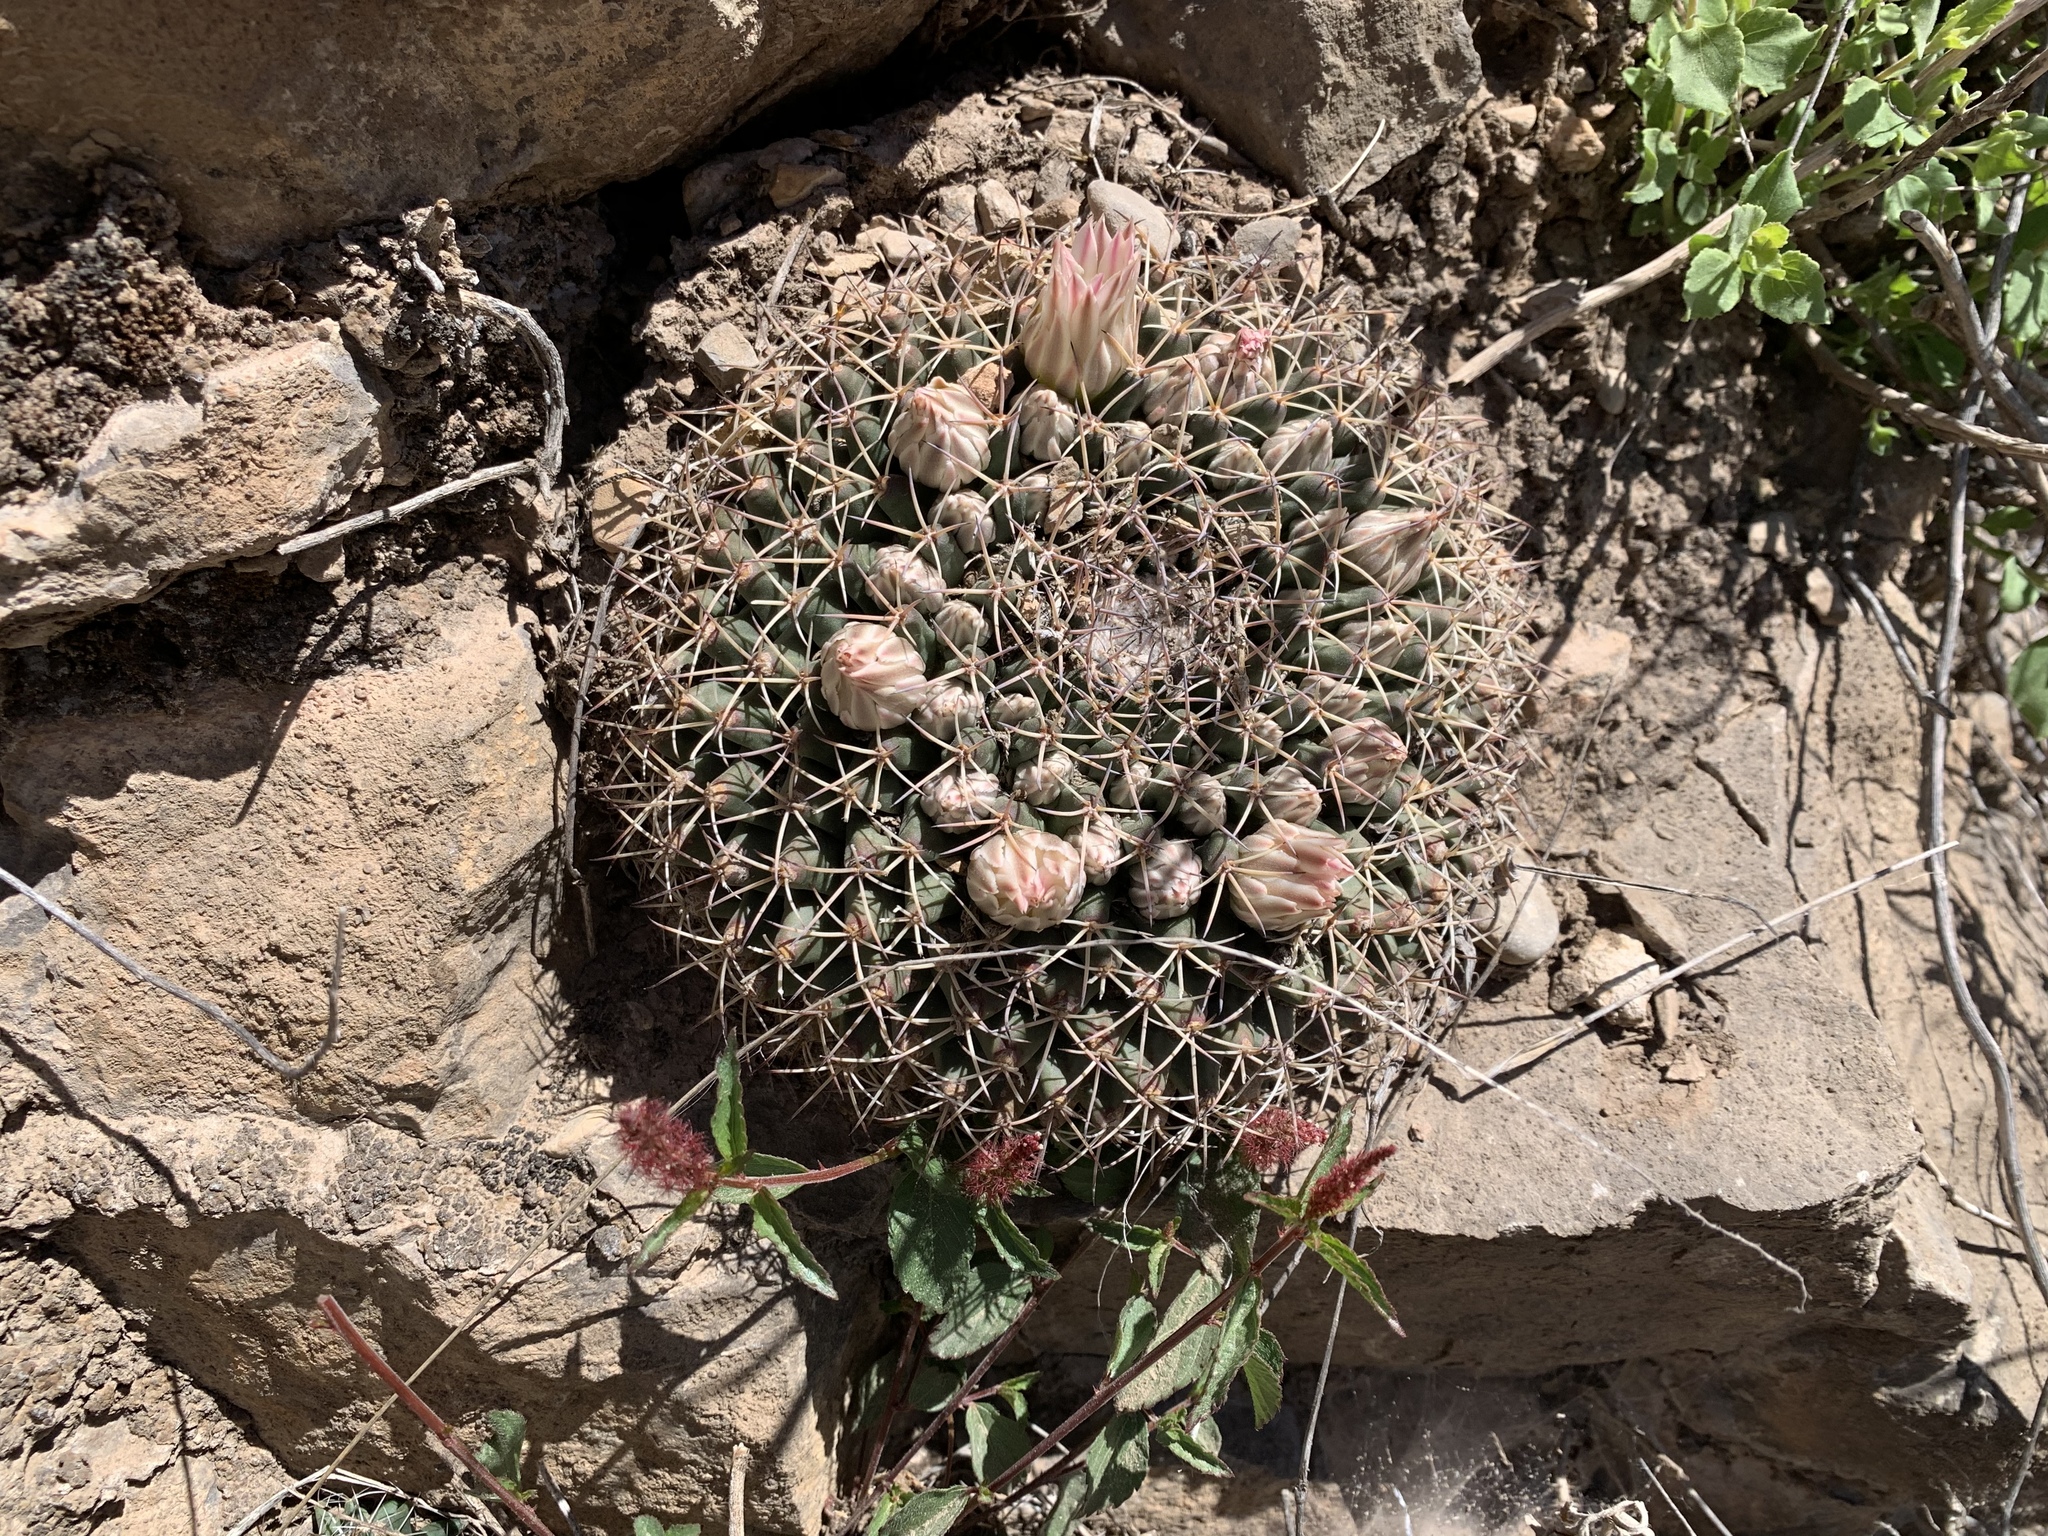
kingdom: Plantae
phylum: Tracheophyta
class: Magnoliopsida
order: Caryophyllales
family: Cactaceae
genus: Mammillaria
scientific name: Mammillaria heyderi
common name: Little nipple cactus
